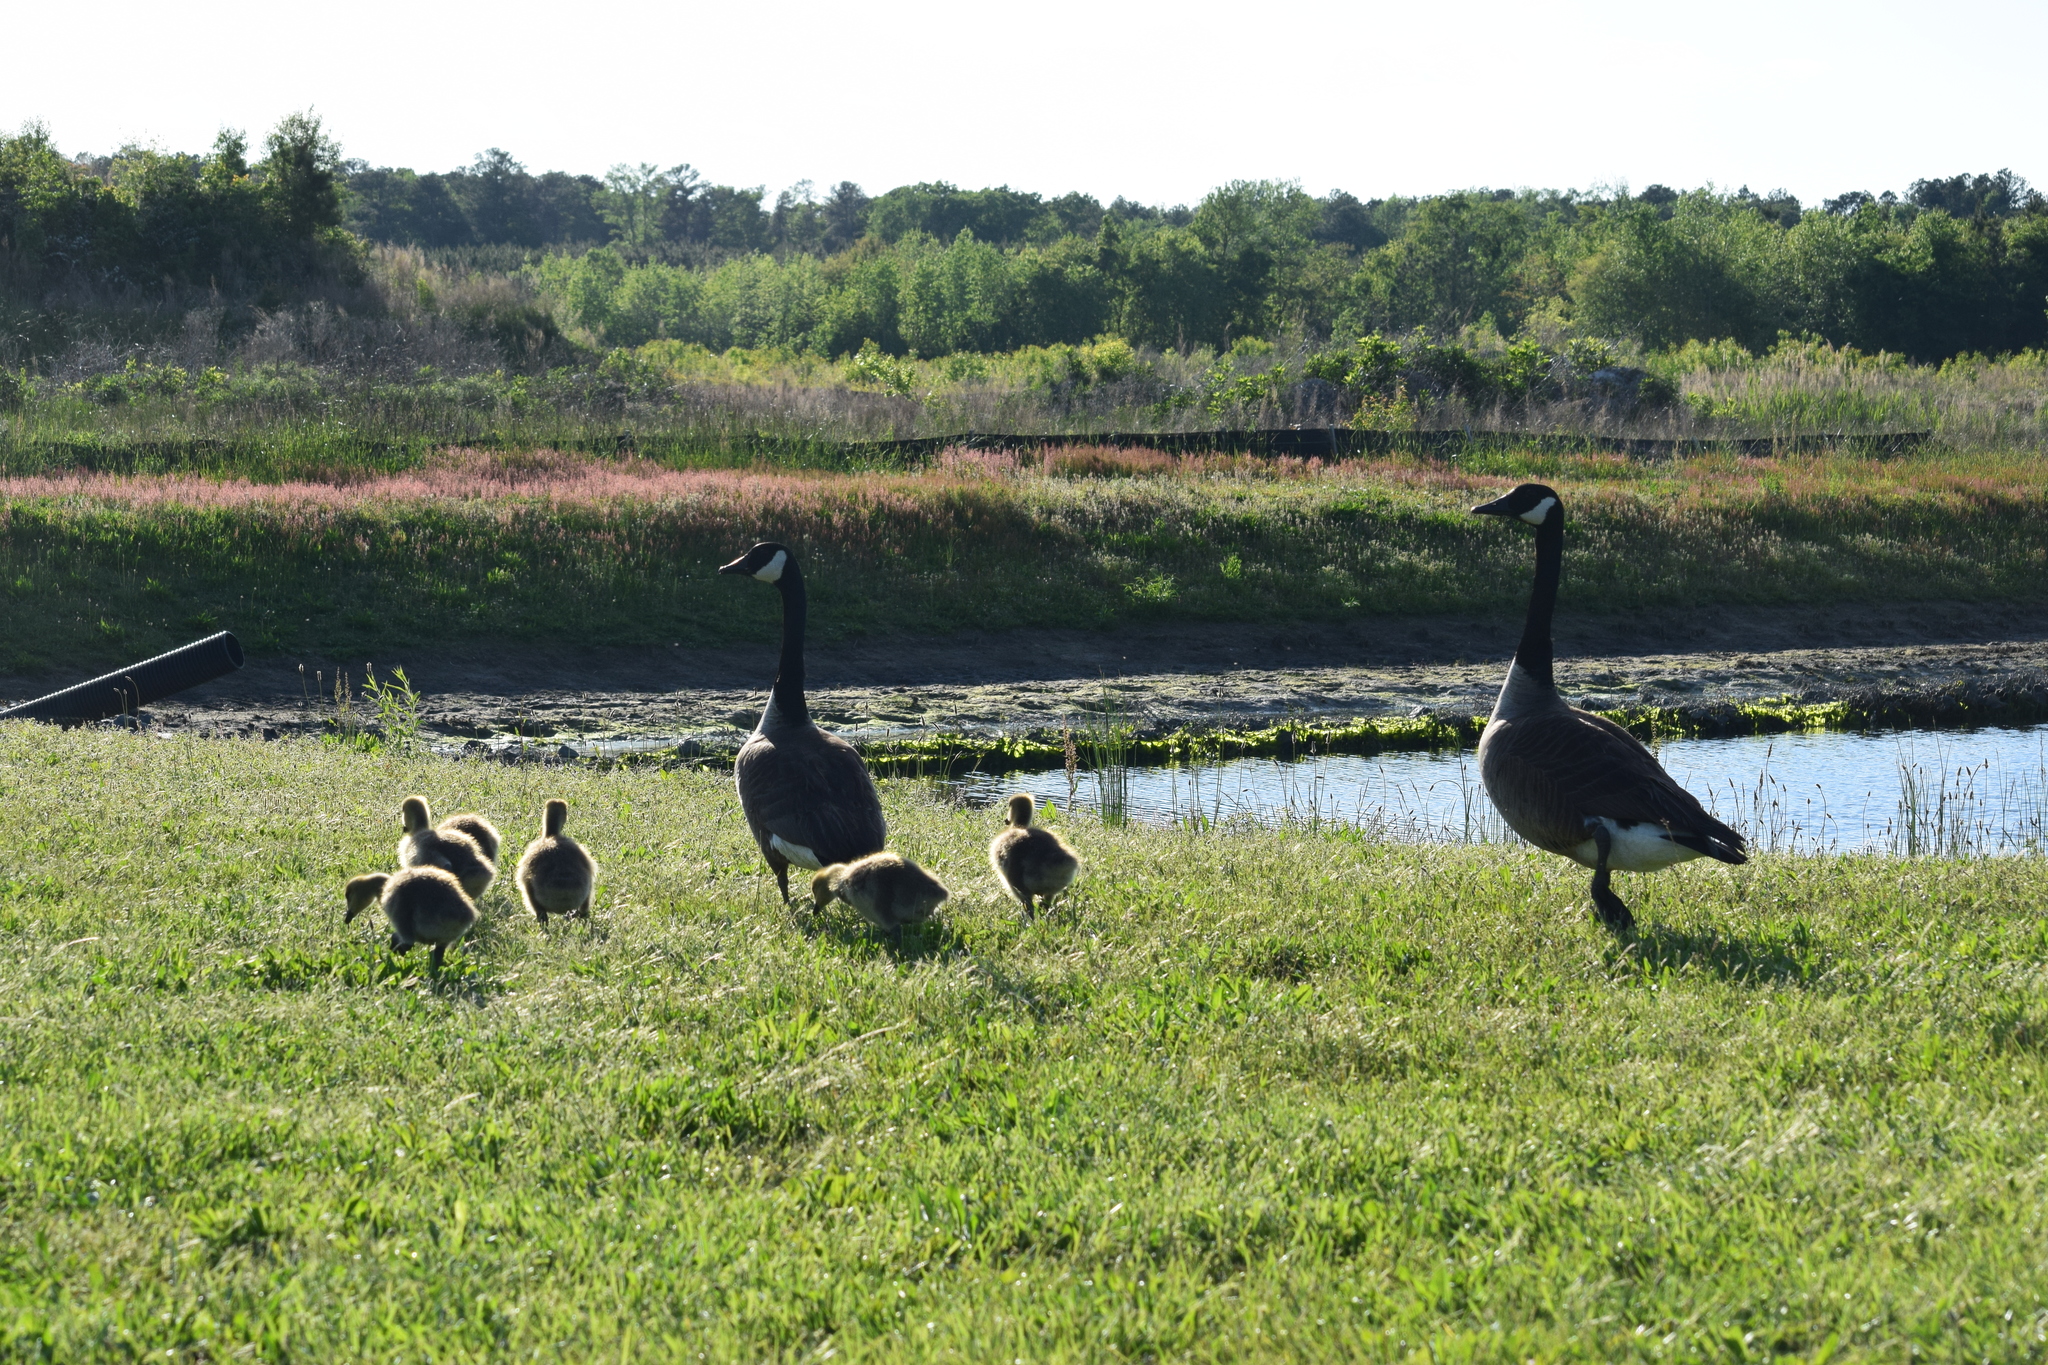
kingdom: Animalia
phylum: Chordata
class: Aves
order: Anseriformes
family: Anatidae
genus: Branta
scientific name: Branta canadensis
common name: Canada goose
